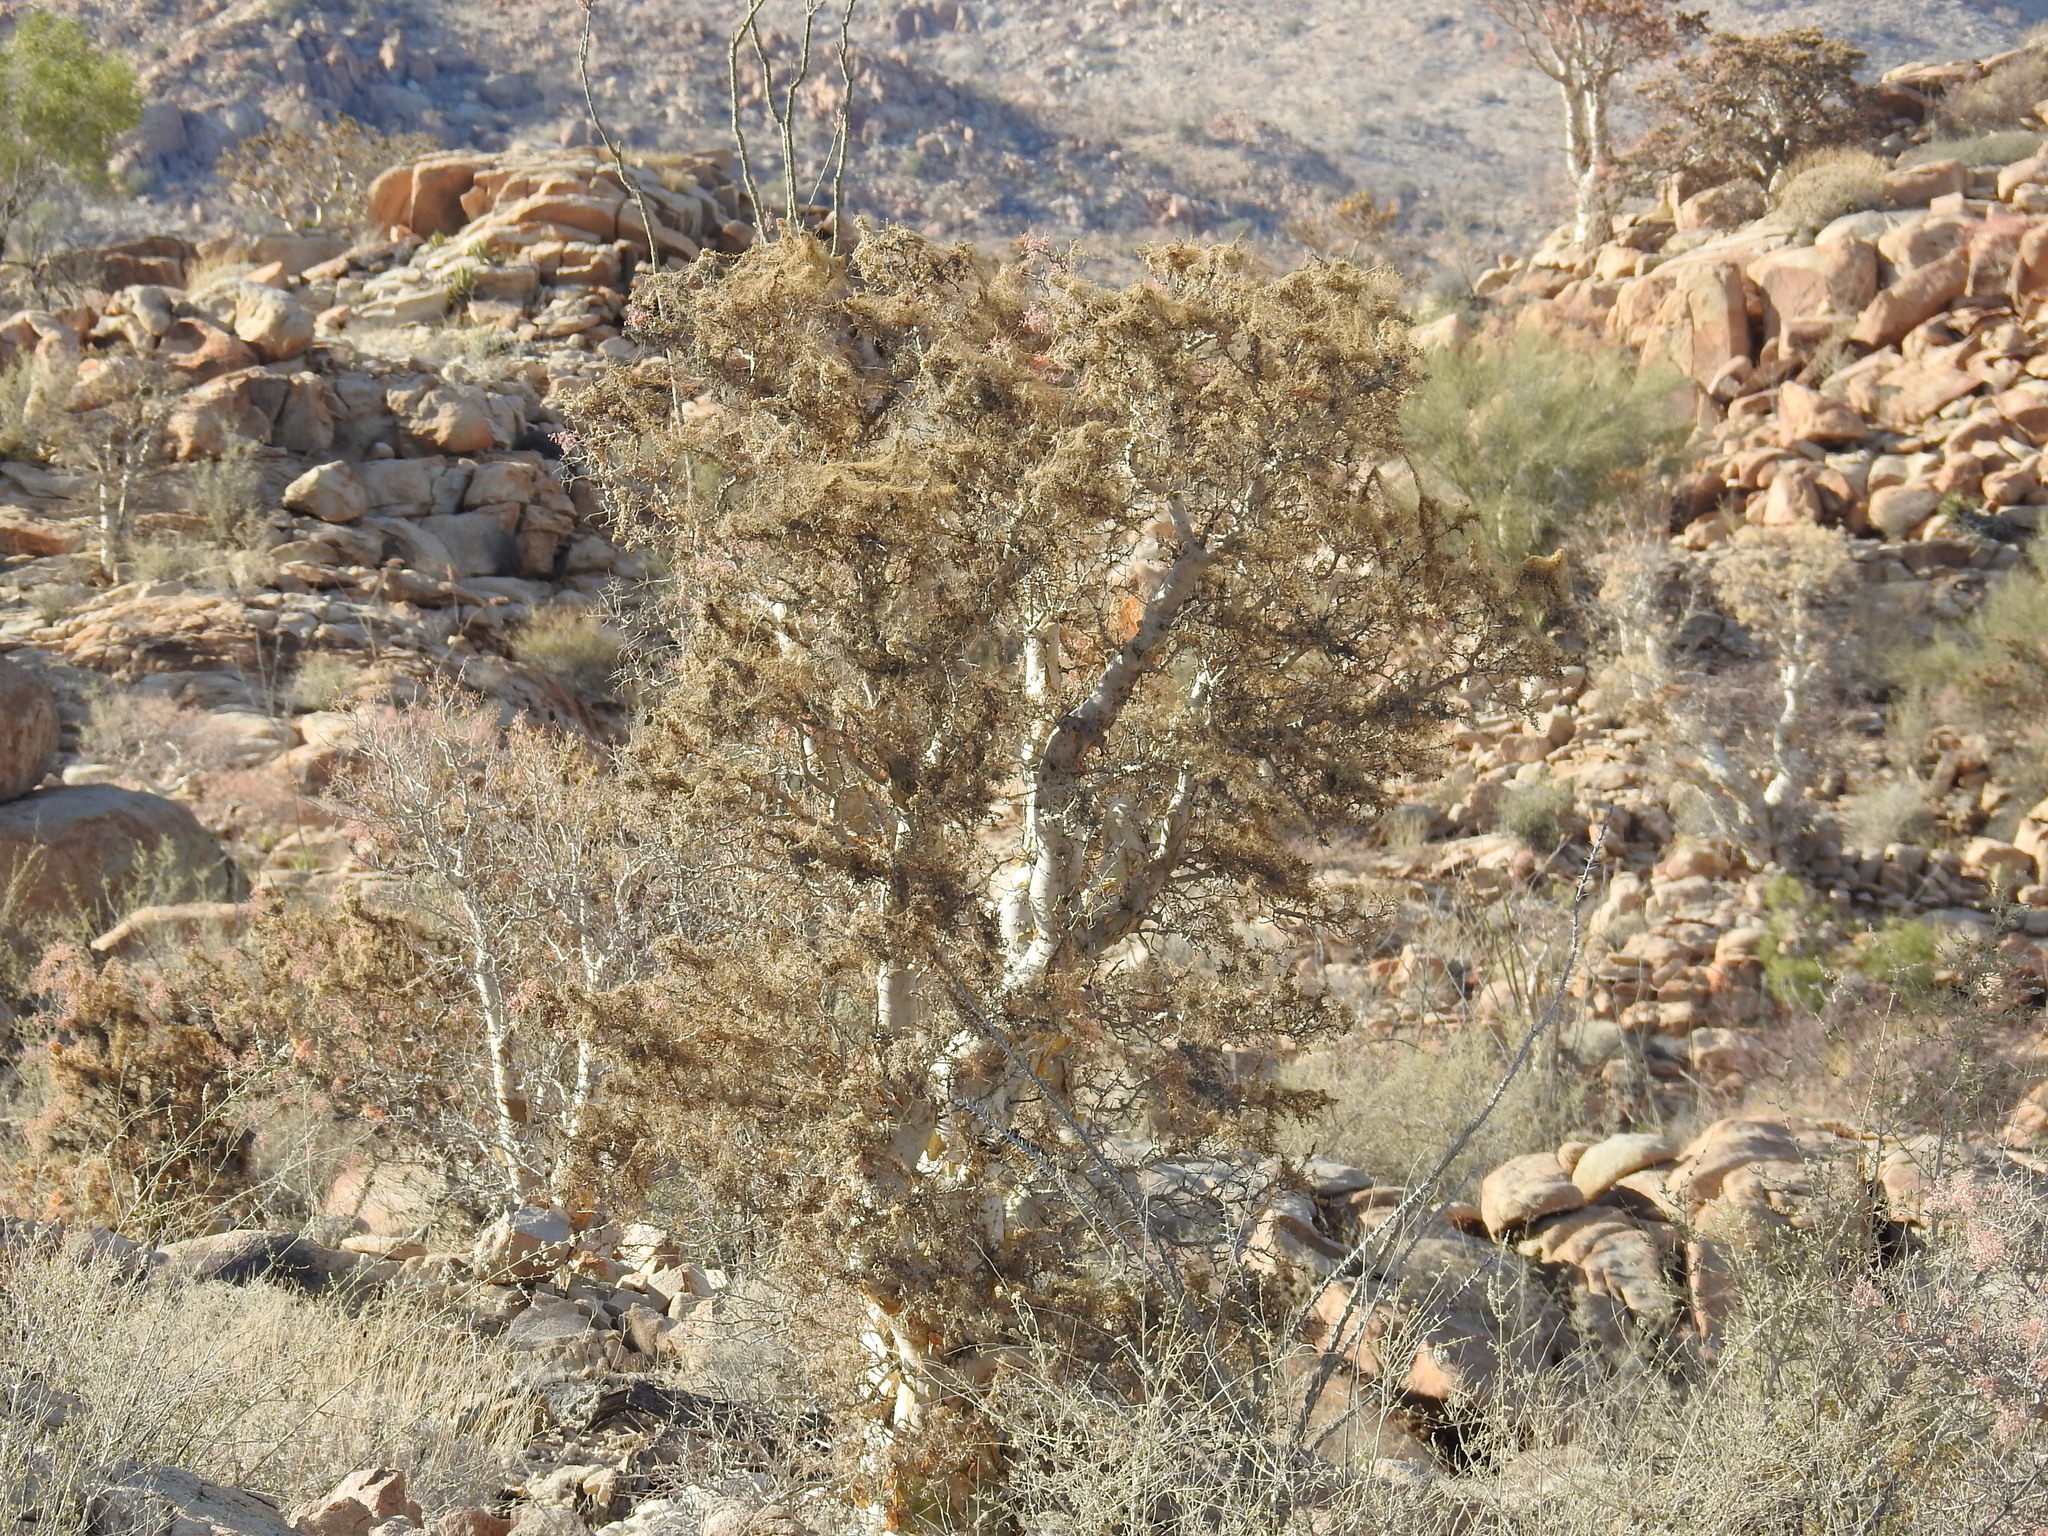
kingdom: Plantae
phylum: Tracheophyta
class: Magnoliopsida
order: Sapindales
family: Anacardiaceae
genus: Pachycormus
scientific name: Pachycormus discolor
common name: Succulent elephant trees
